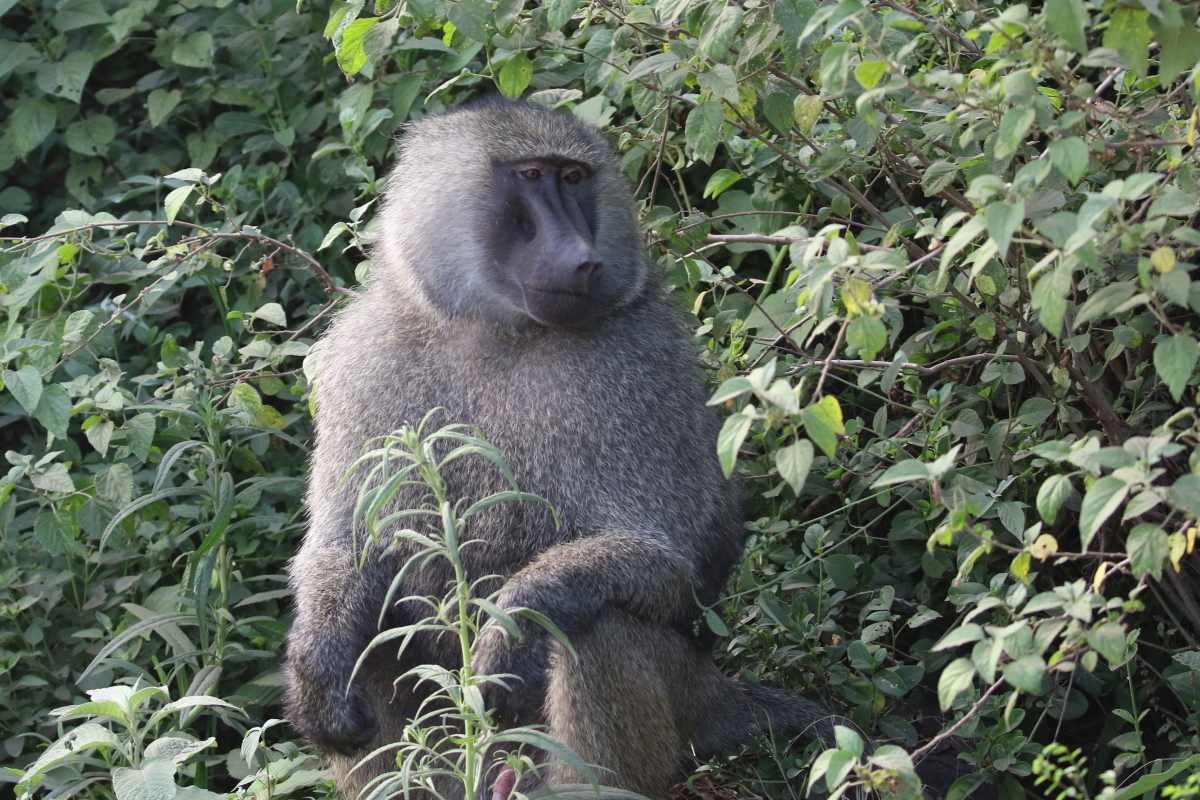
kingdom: Animalia
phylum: Chordata
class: Mammalia
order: Primates
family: Cercopithecidae
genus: Papio
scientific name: Papio anubis
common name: Olive baboon
